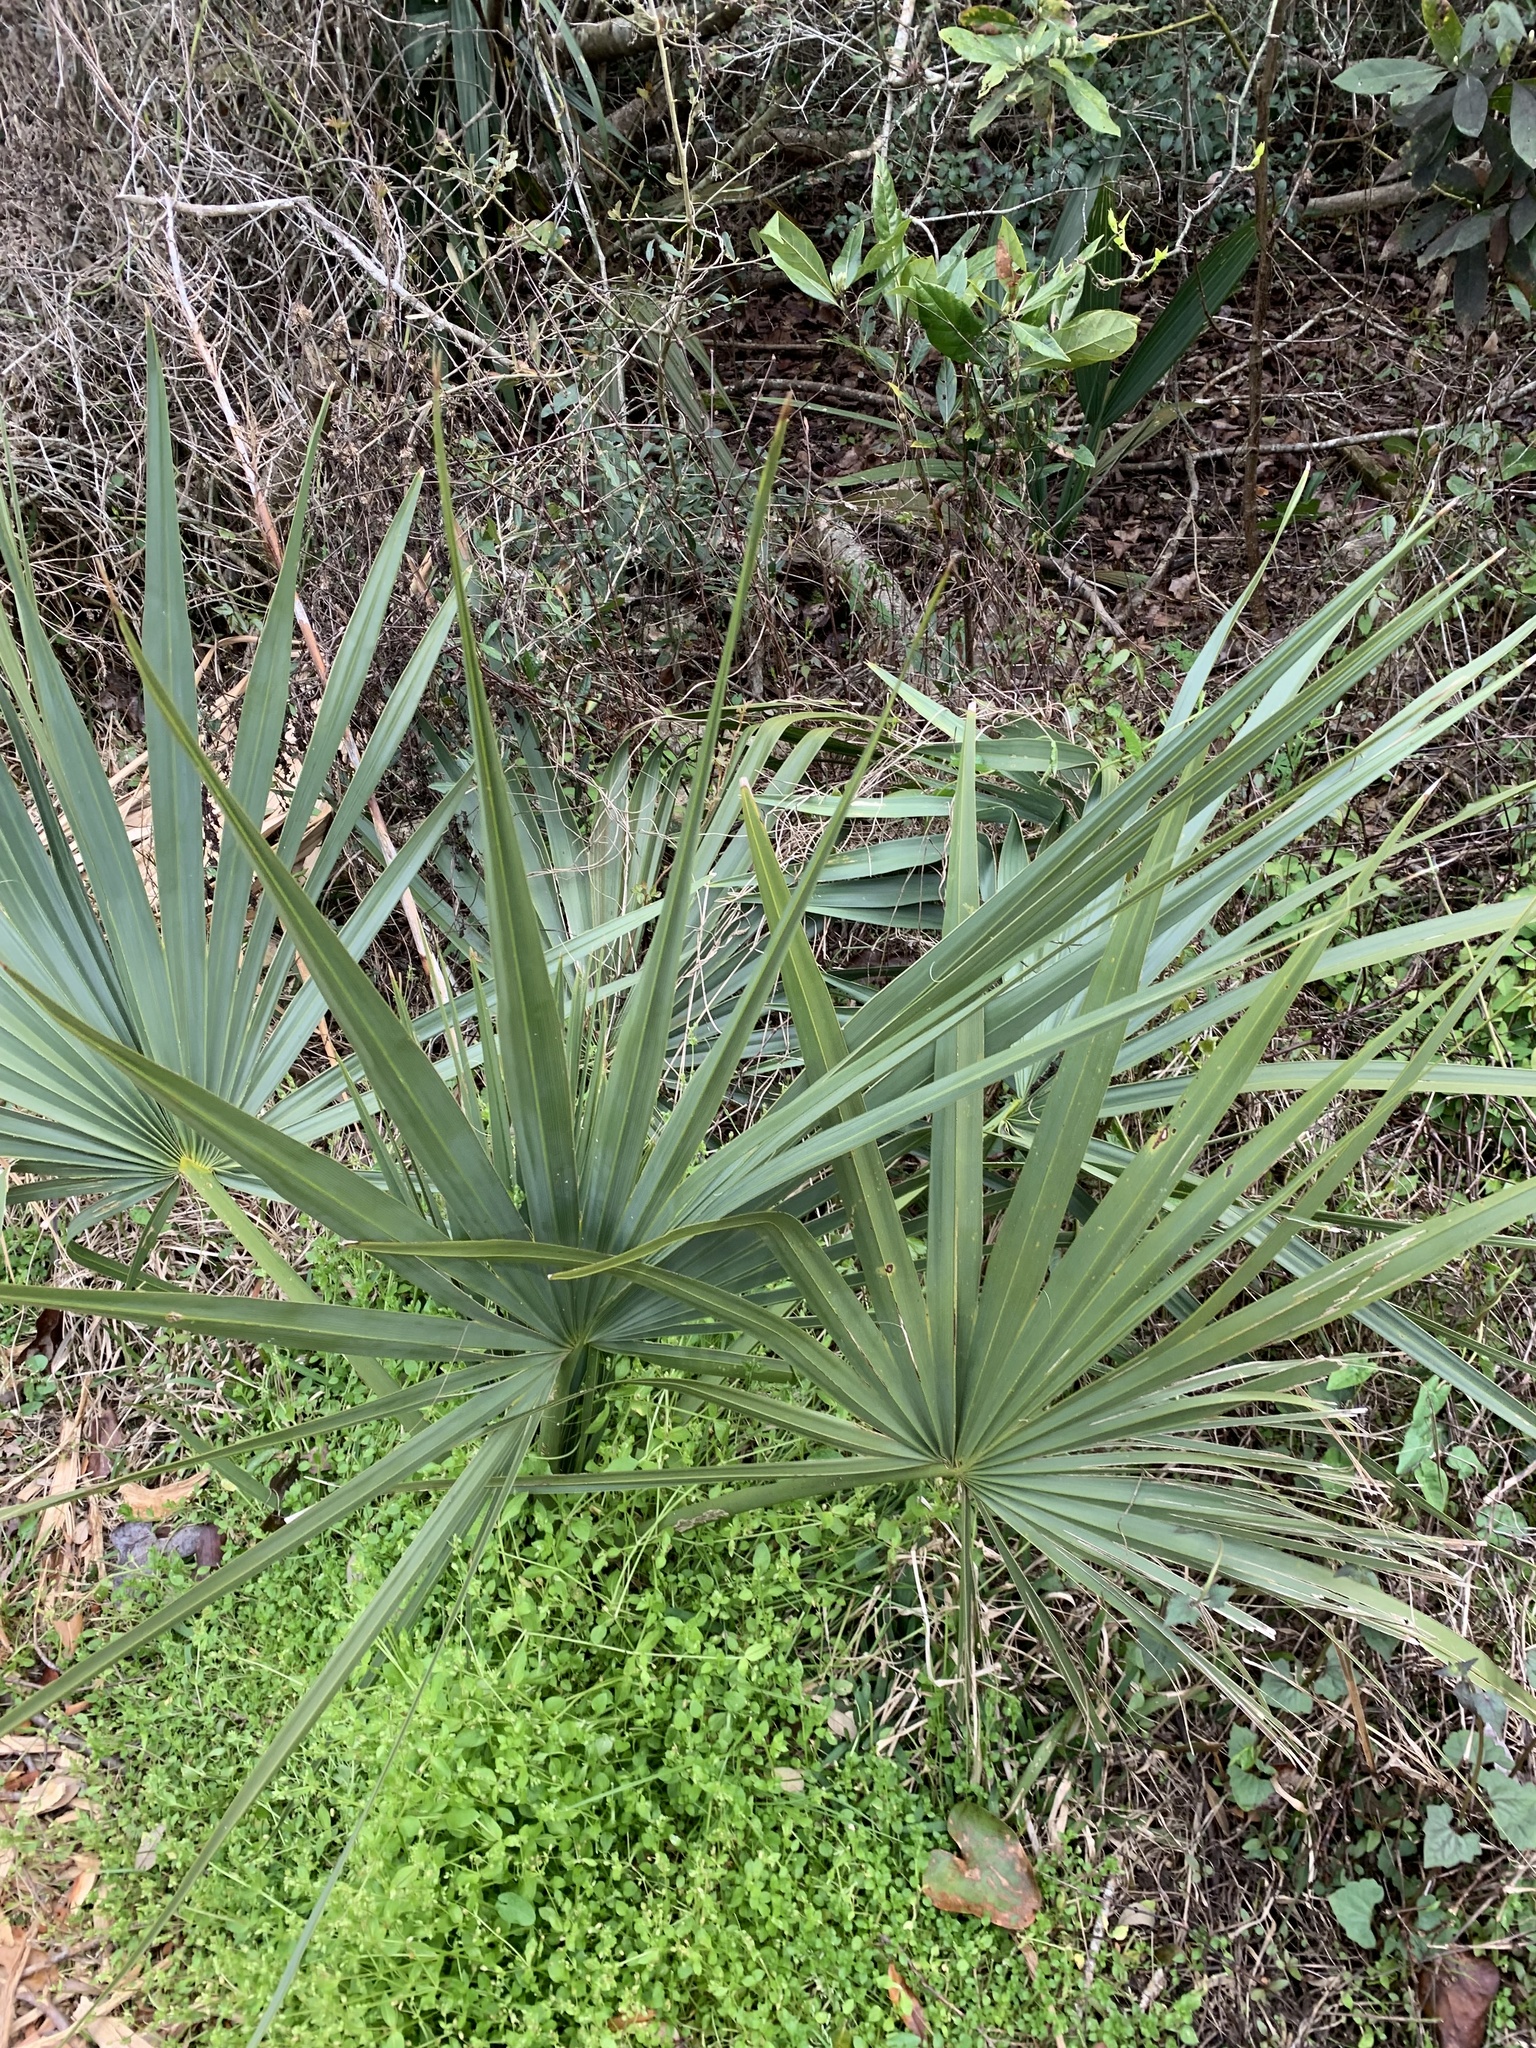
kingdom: Plantae
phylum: Tracheophyta
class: Liliopsida
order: Arecales
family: Arecaceae
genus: Sabal
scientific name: Sabal minor
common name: Dwarf palmetto
